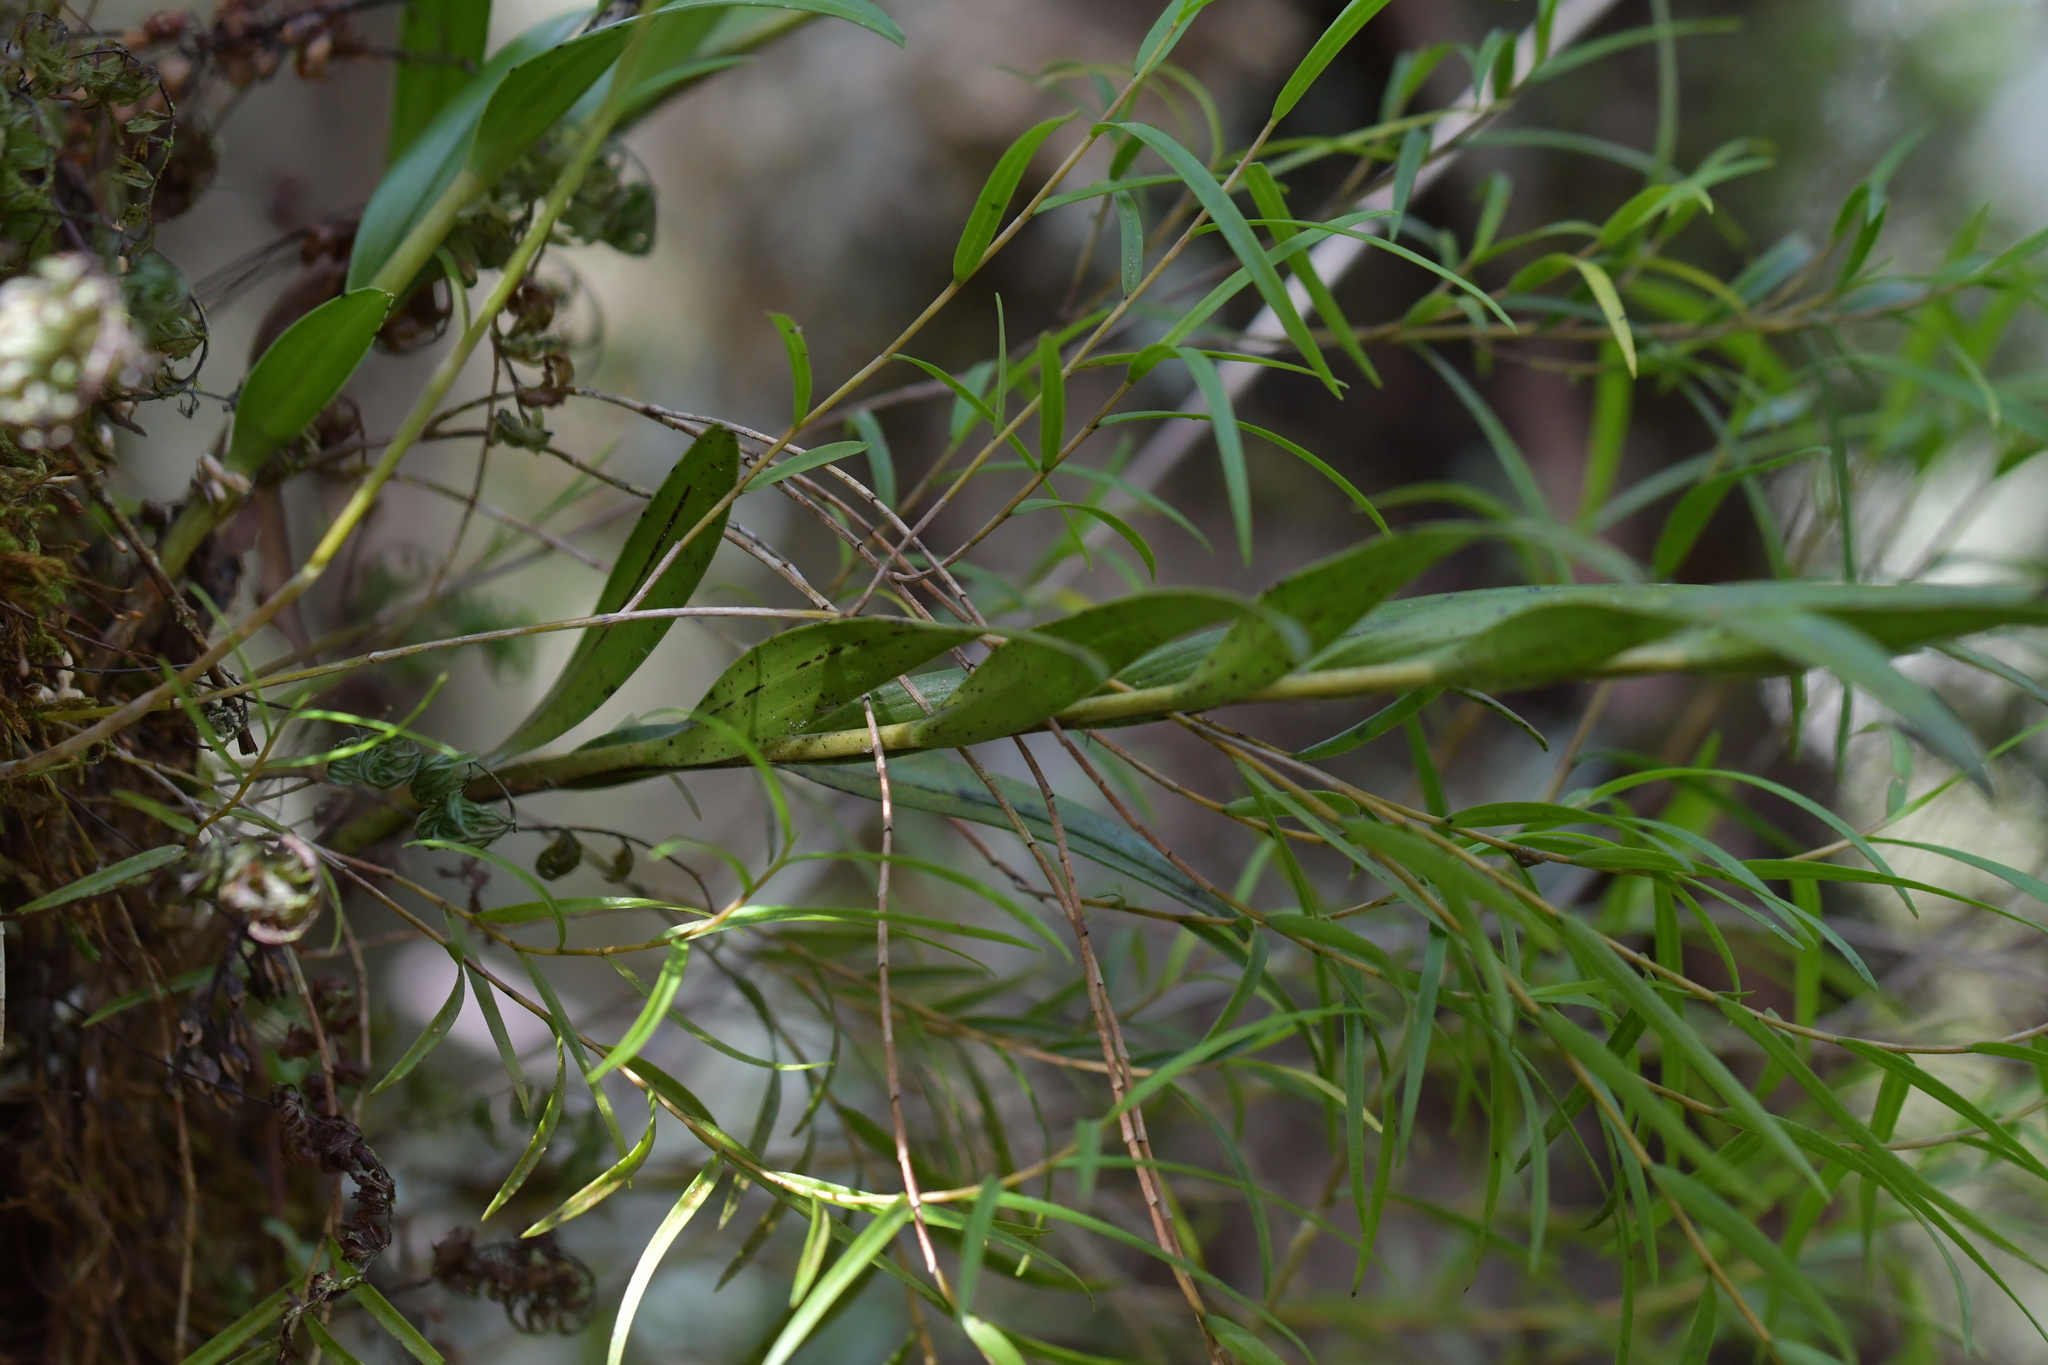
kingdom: Plantae
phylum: Tracheophyta
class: Liliopsida
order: Asparagales
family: Orchidaceae
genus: Dendrobium
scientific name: Dendrobium cunninghamii
